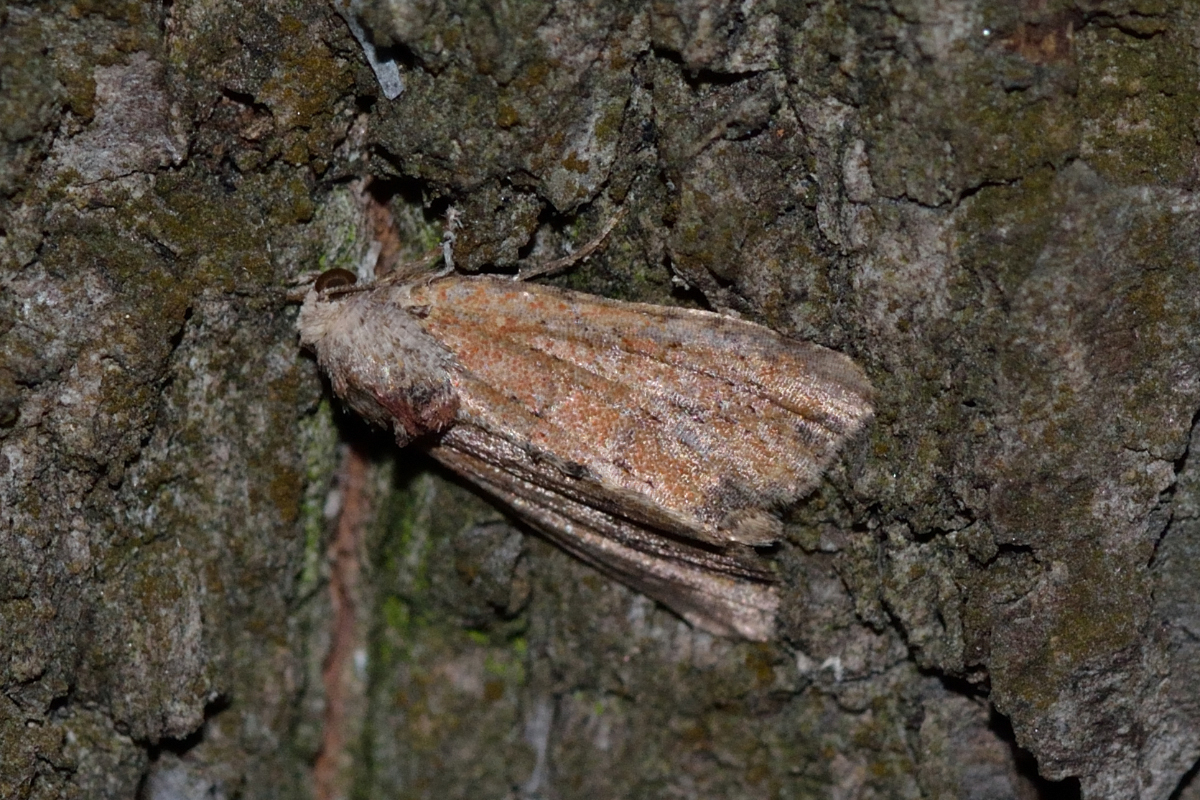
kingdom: Animalia
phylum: Arthropoda
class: Insecta
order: Lepidoptera
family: Noctuidae
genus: Mesoligia
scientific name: Mesoligia furuncula
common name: Cloaked minor
